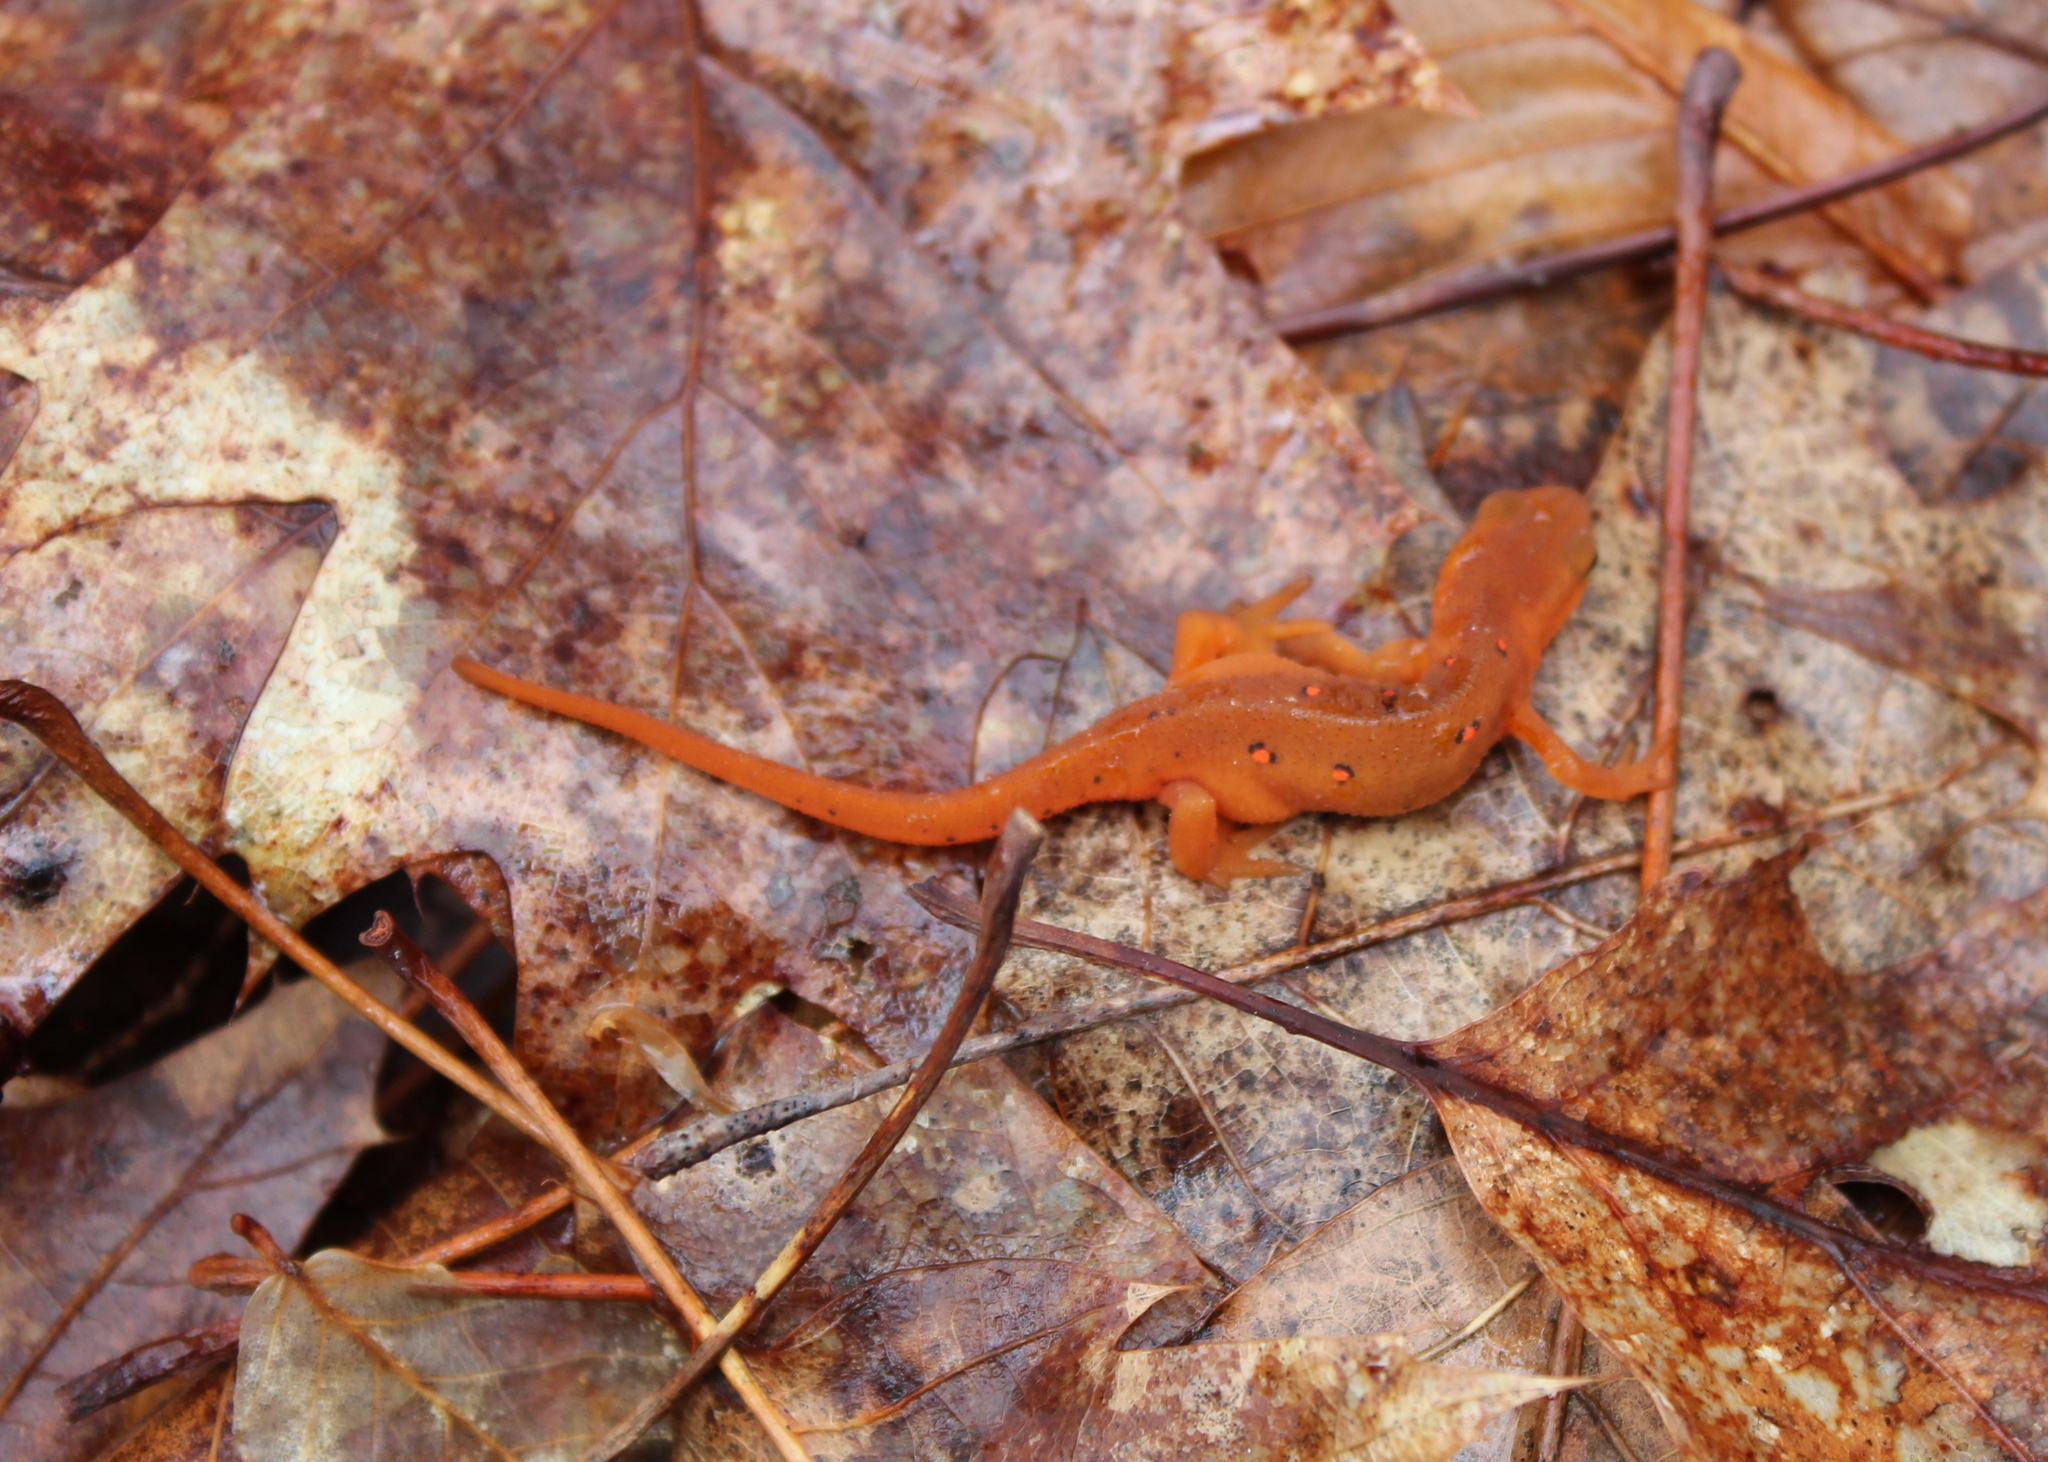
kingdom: Animalia
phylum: Chordata
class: Amphibia
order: Caudata
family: Salamandridae
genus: Notophthalmus
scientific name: Notophthalmus viridescens
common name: Eastern newt
